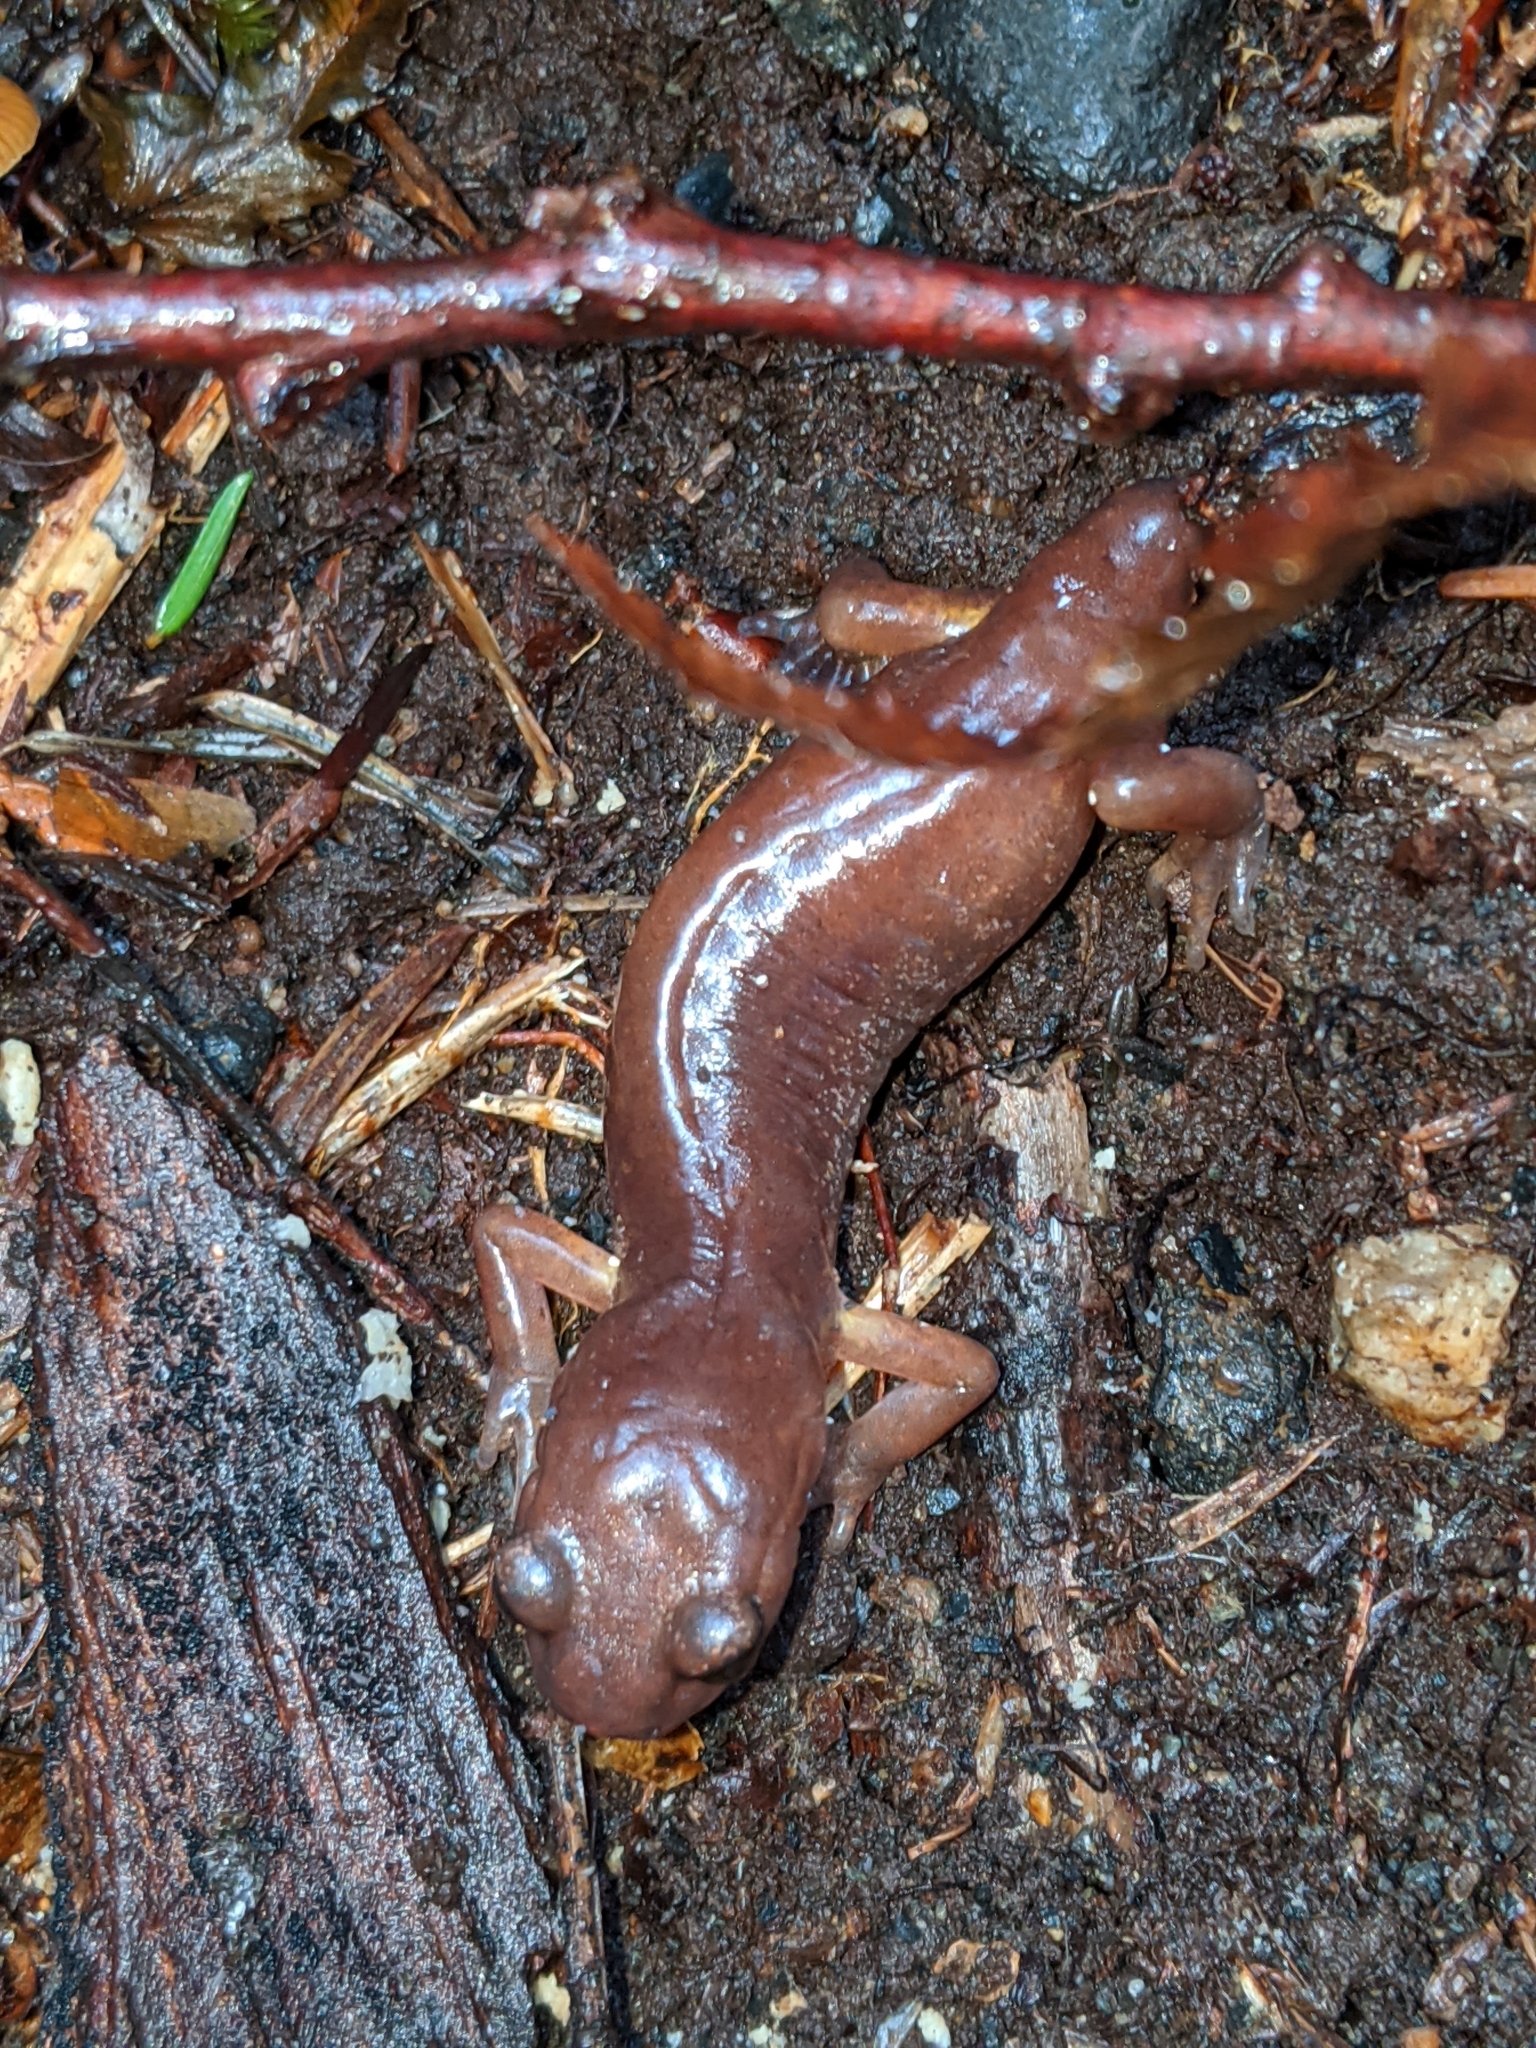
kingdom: Animalia
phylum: Chordata
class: Amphibia
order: Caudata
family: Plethodontidae
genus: Ensatina
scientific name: Ensatina eschscholtzii
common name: Ensatina
